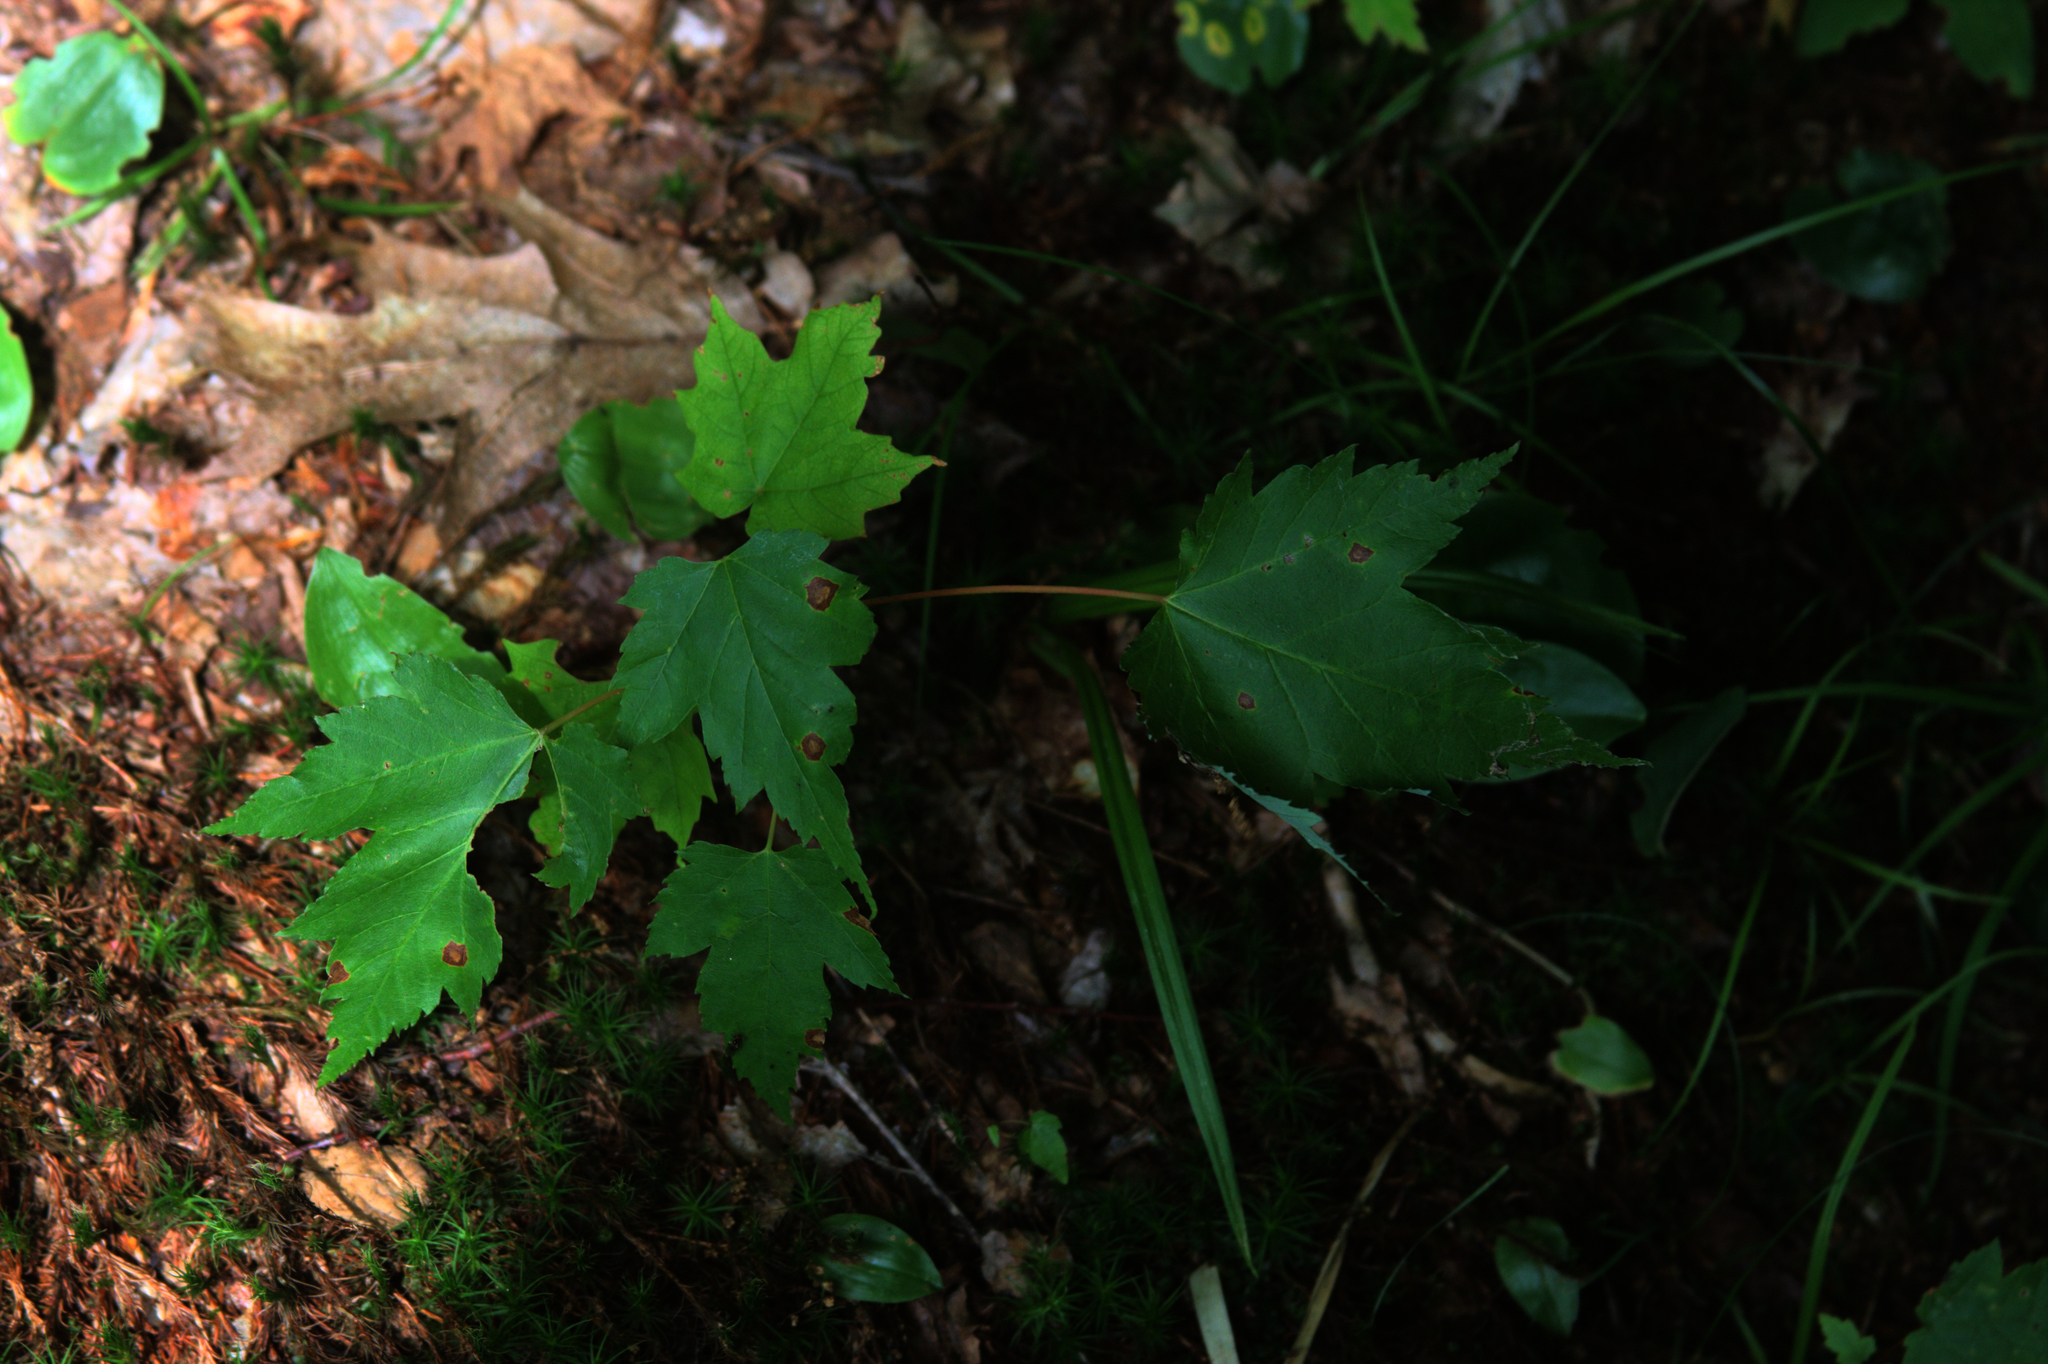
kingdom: Plantae
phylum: Tracheophyta
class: Magnoliopsida
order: Sapindales
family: Sapindaceae
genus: Acer
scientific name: Acer rubrum
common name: Red maple
